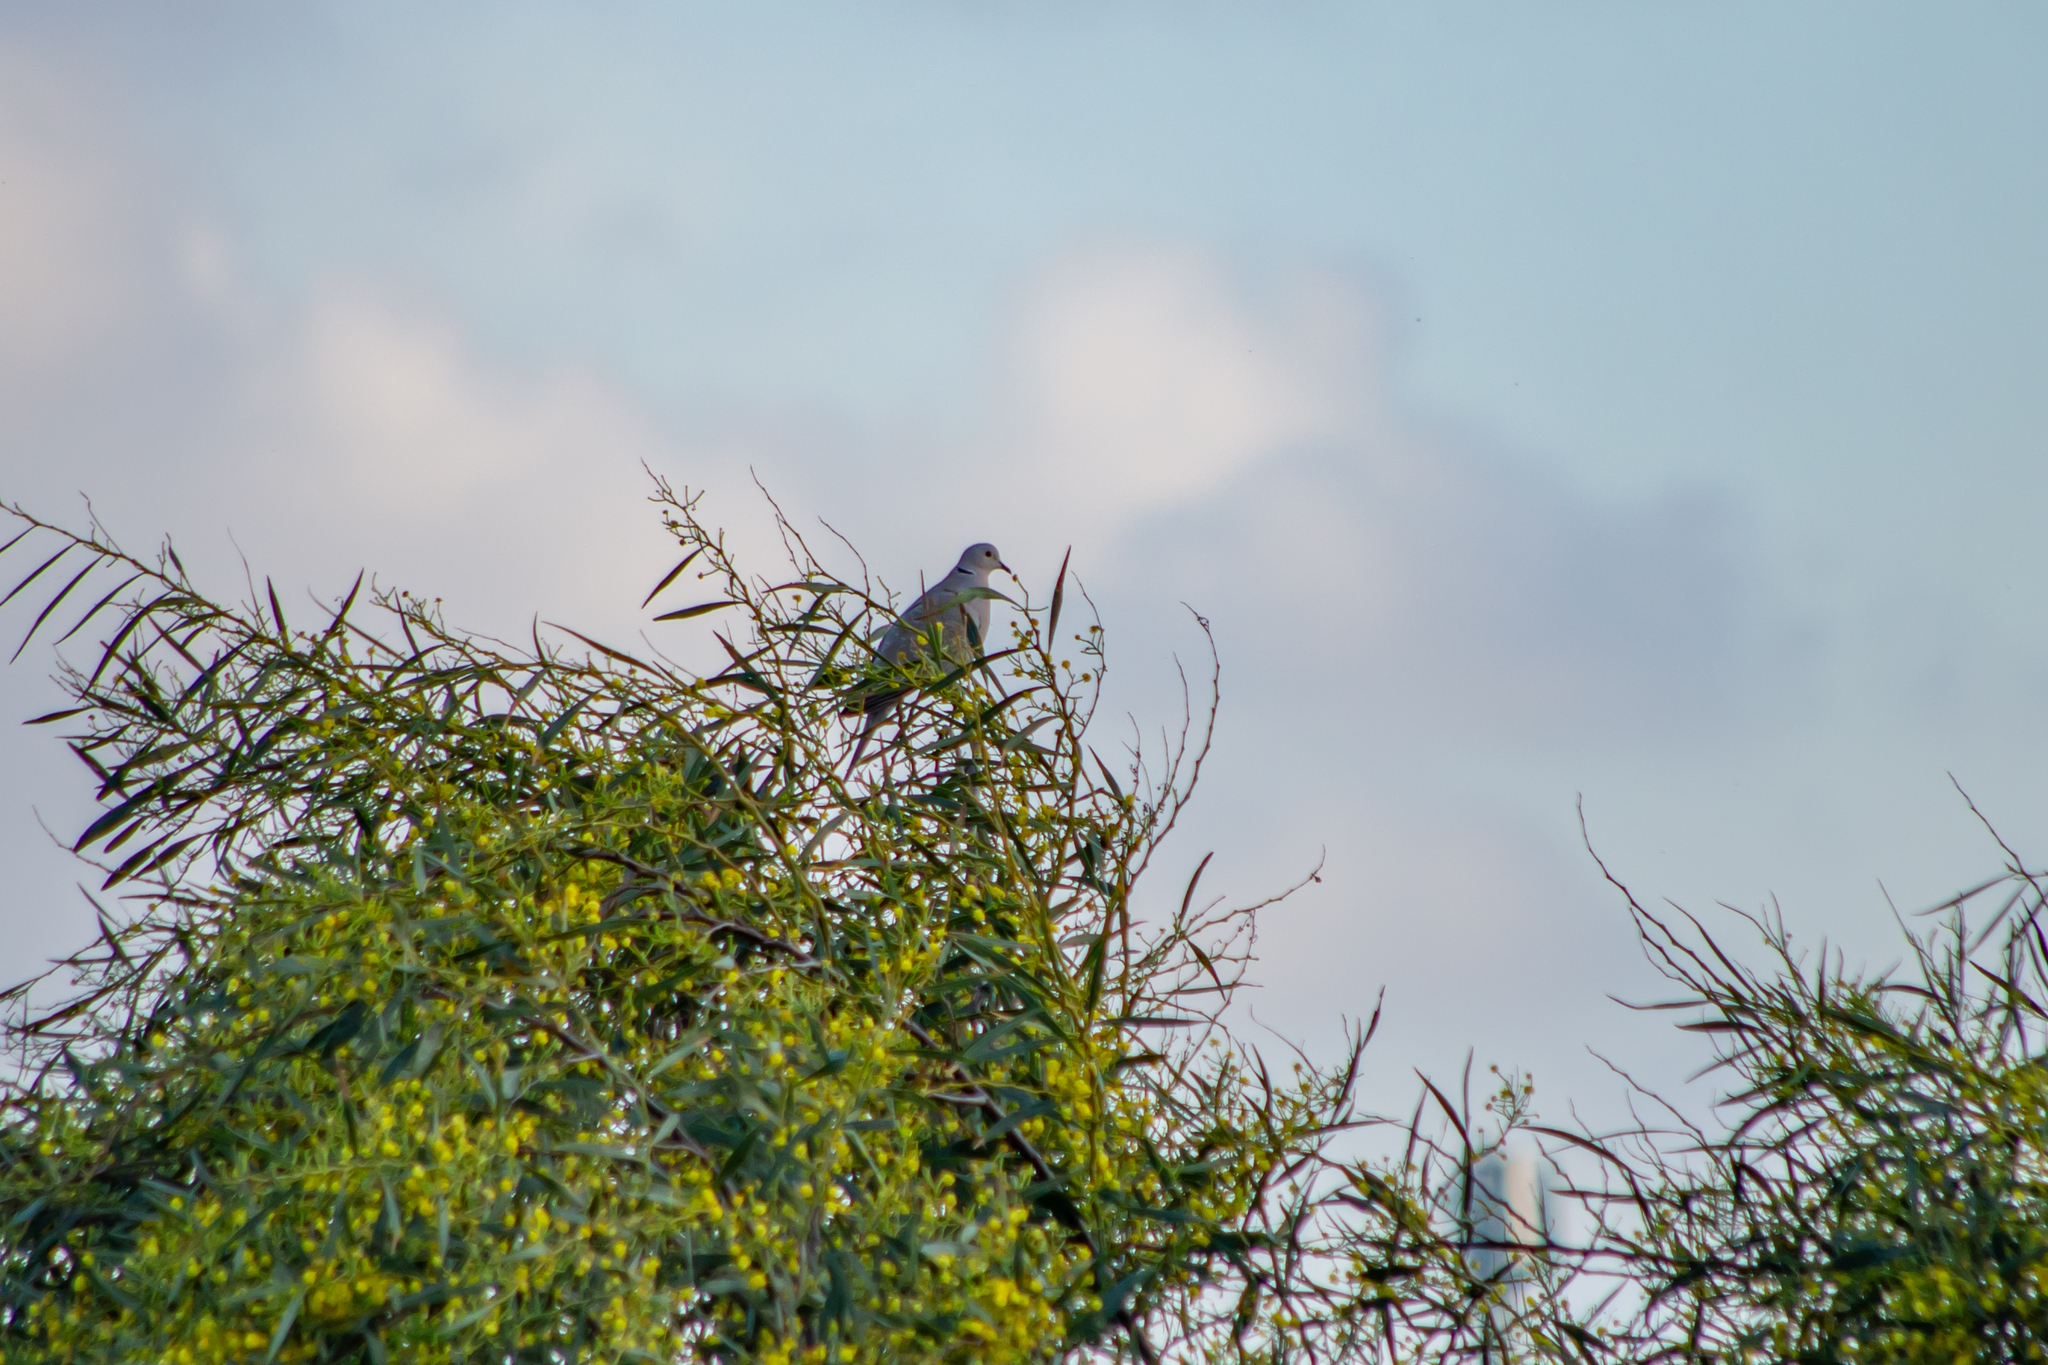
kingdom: Animalia
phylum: Chordata
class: Aves
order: Columbiformes
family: Columbidae
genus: Streptopelia
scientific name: Streptopelia decaocto
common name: Eurasian collared dove
